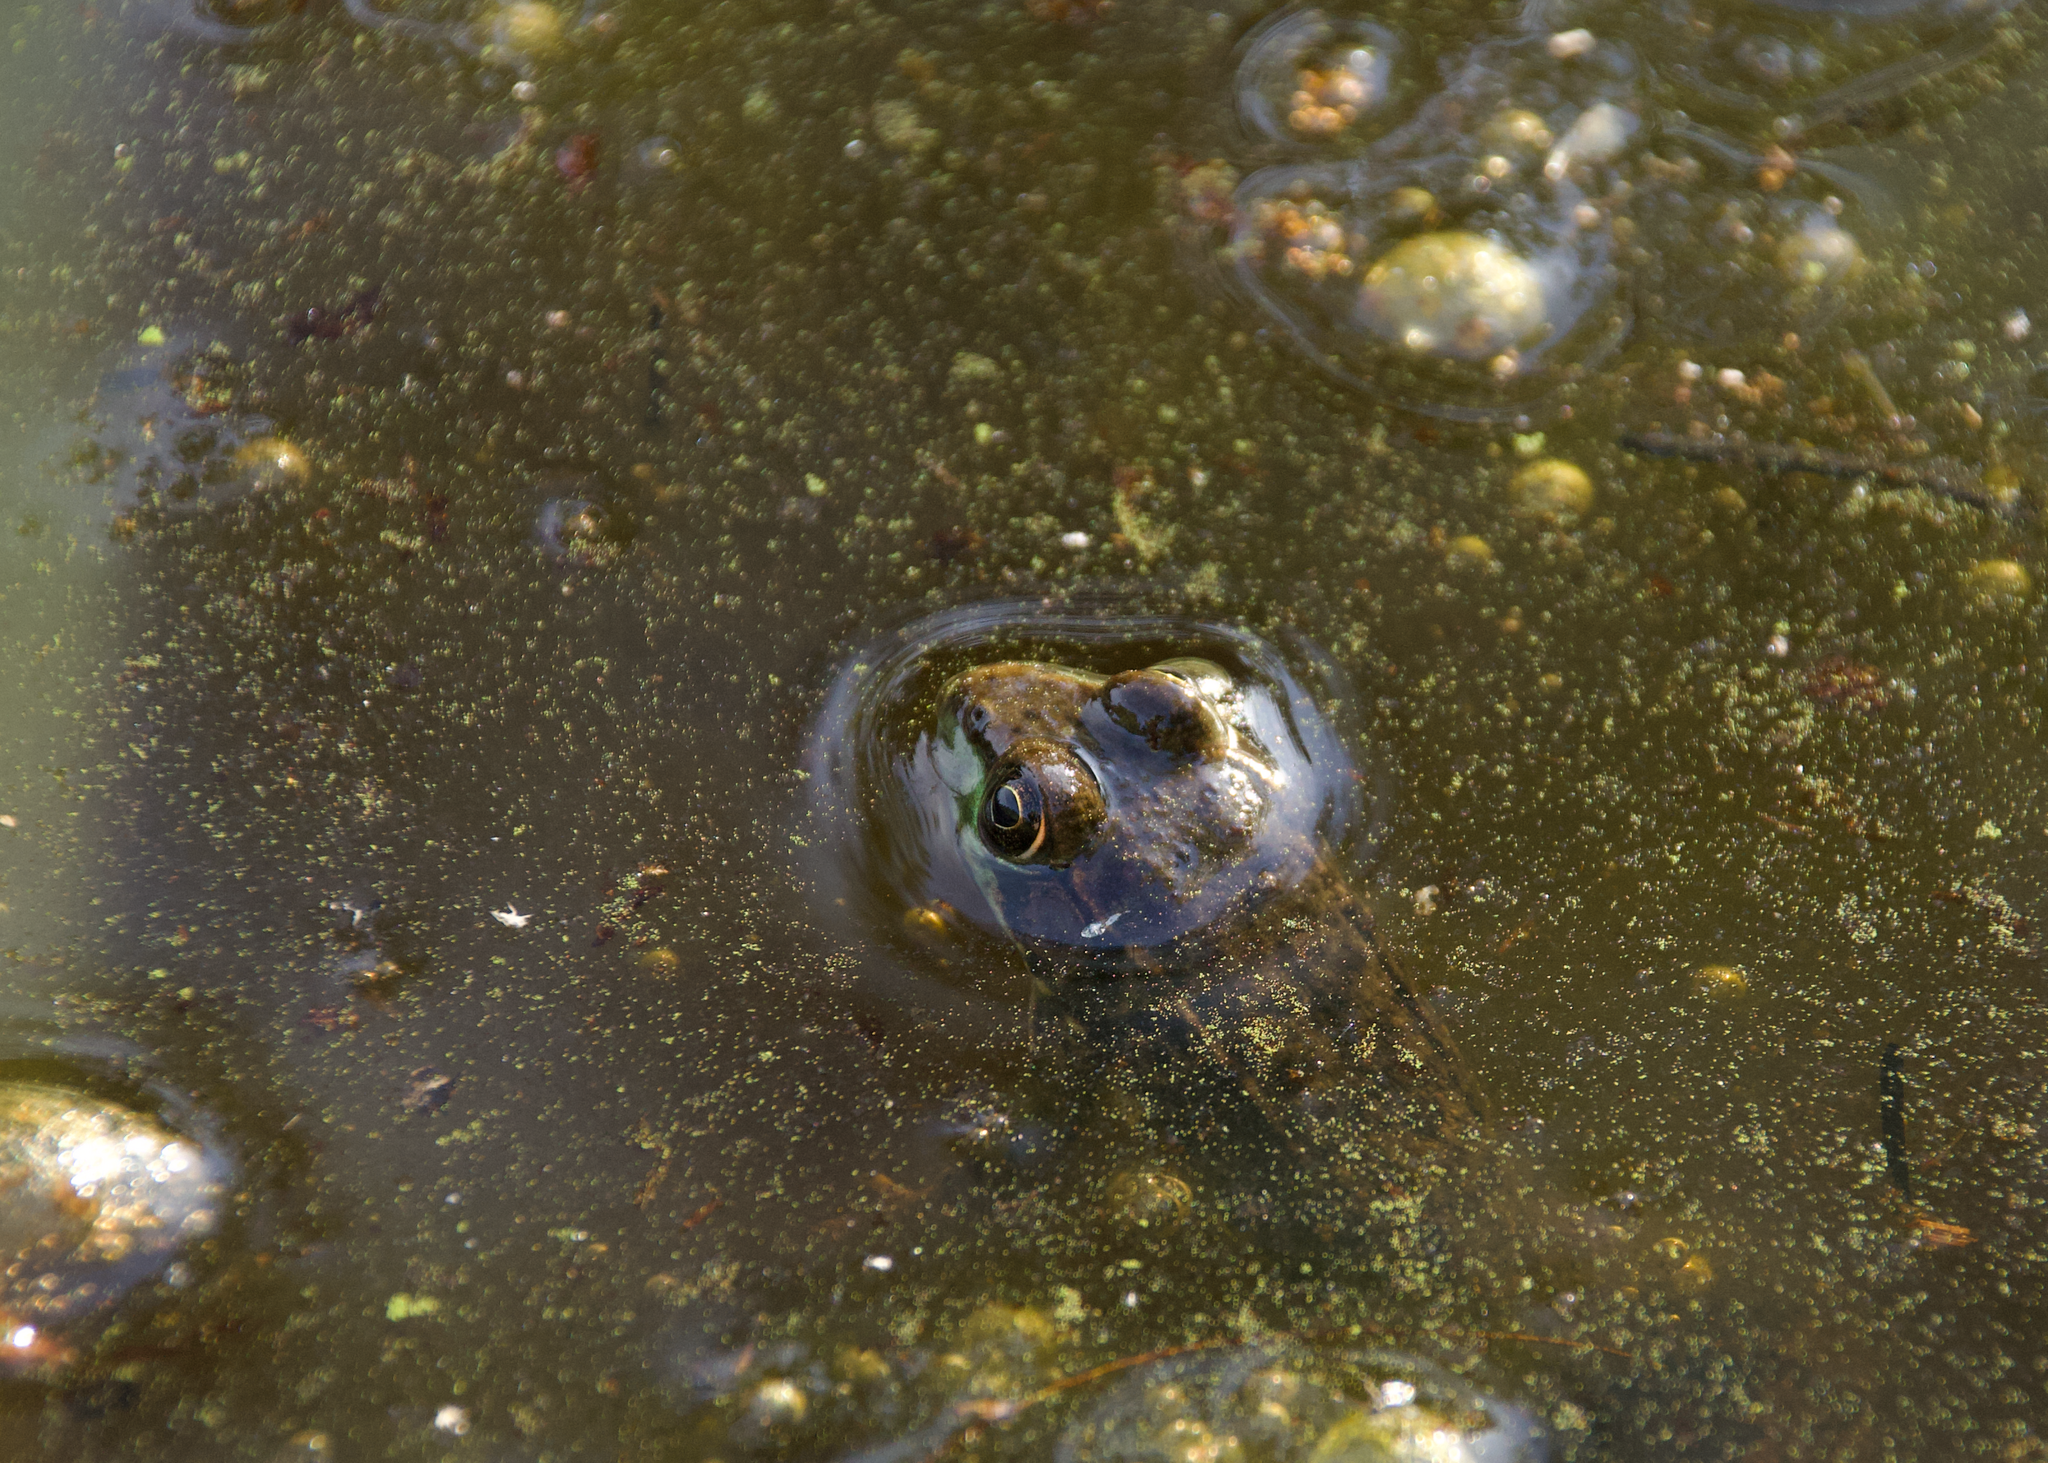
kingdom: Animalia
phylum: Chordata
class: Amphibia
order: Anura
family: Ranidae
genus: Lithobates
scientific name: Lithobates clamitans
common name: Green frog
